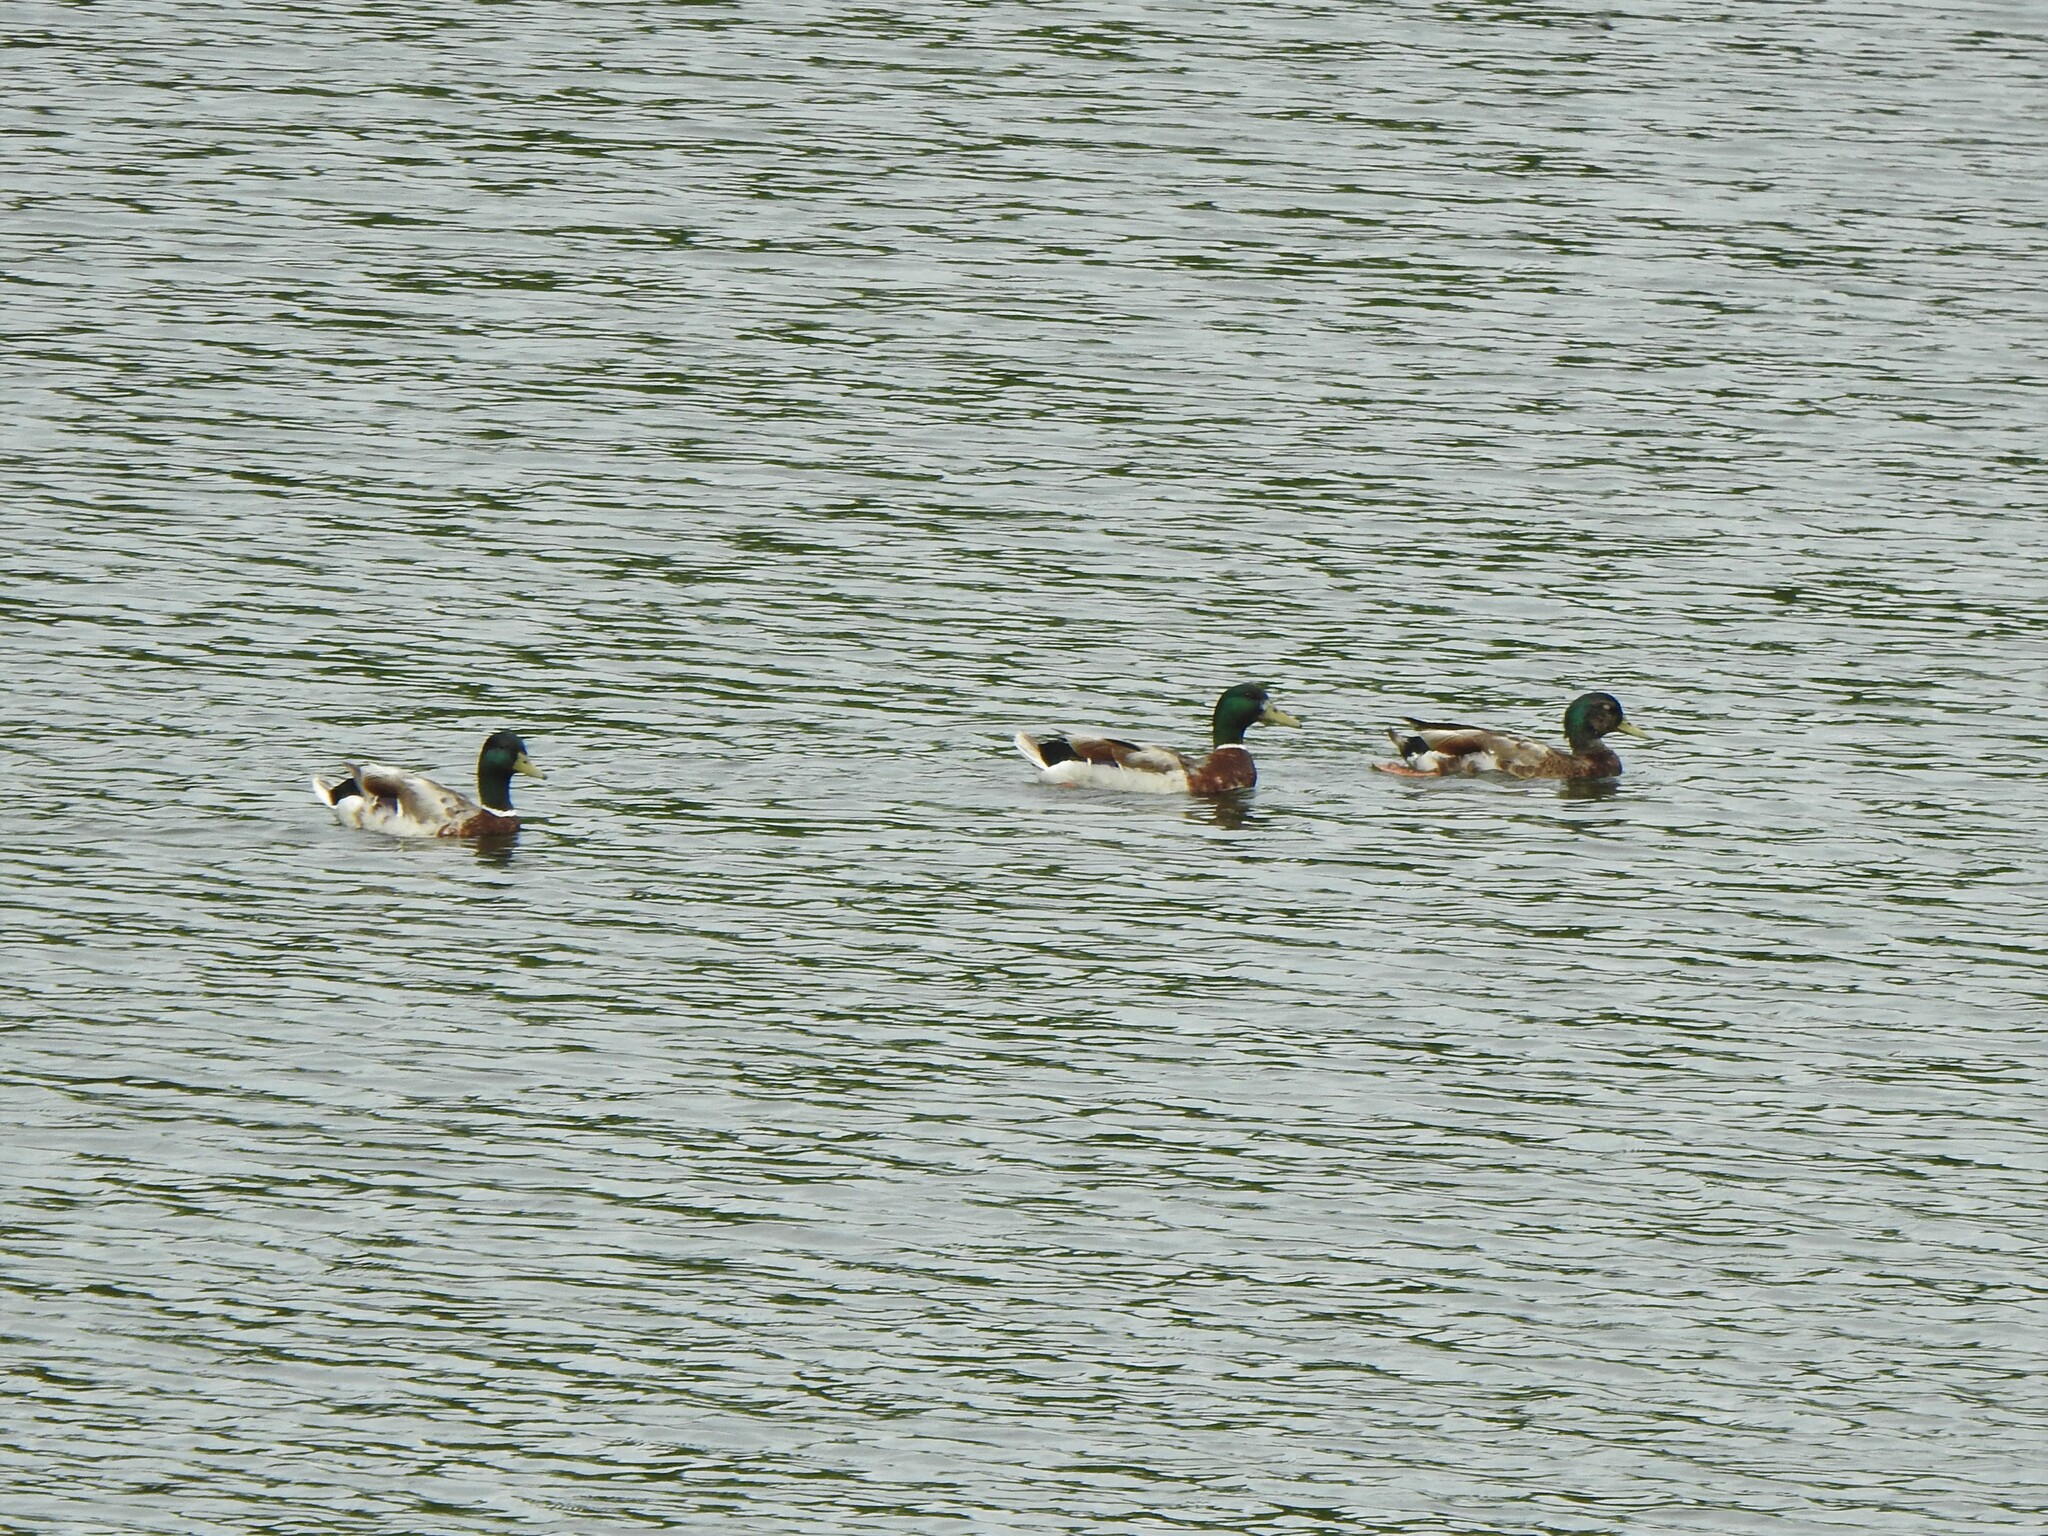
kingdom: Animalia
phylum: Chordata
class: Aves
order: Anseriformes
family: Anatidae
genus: Anas
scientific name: Anas platyrhynchos
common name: Mallard
